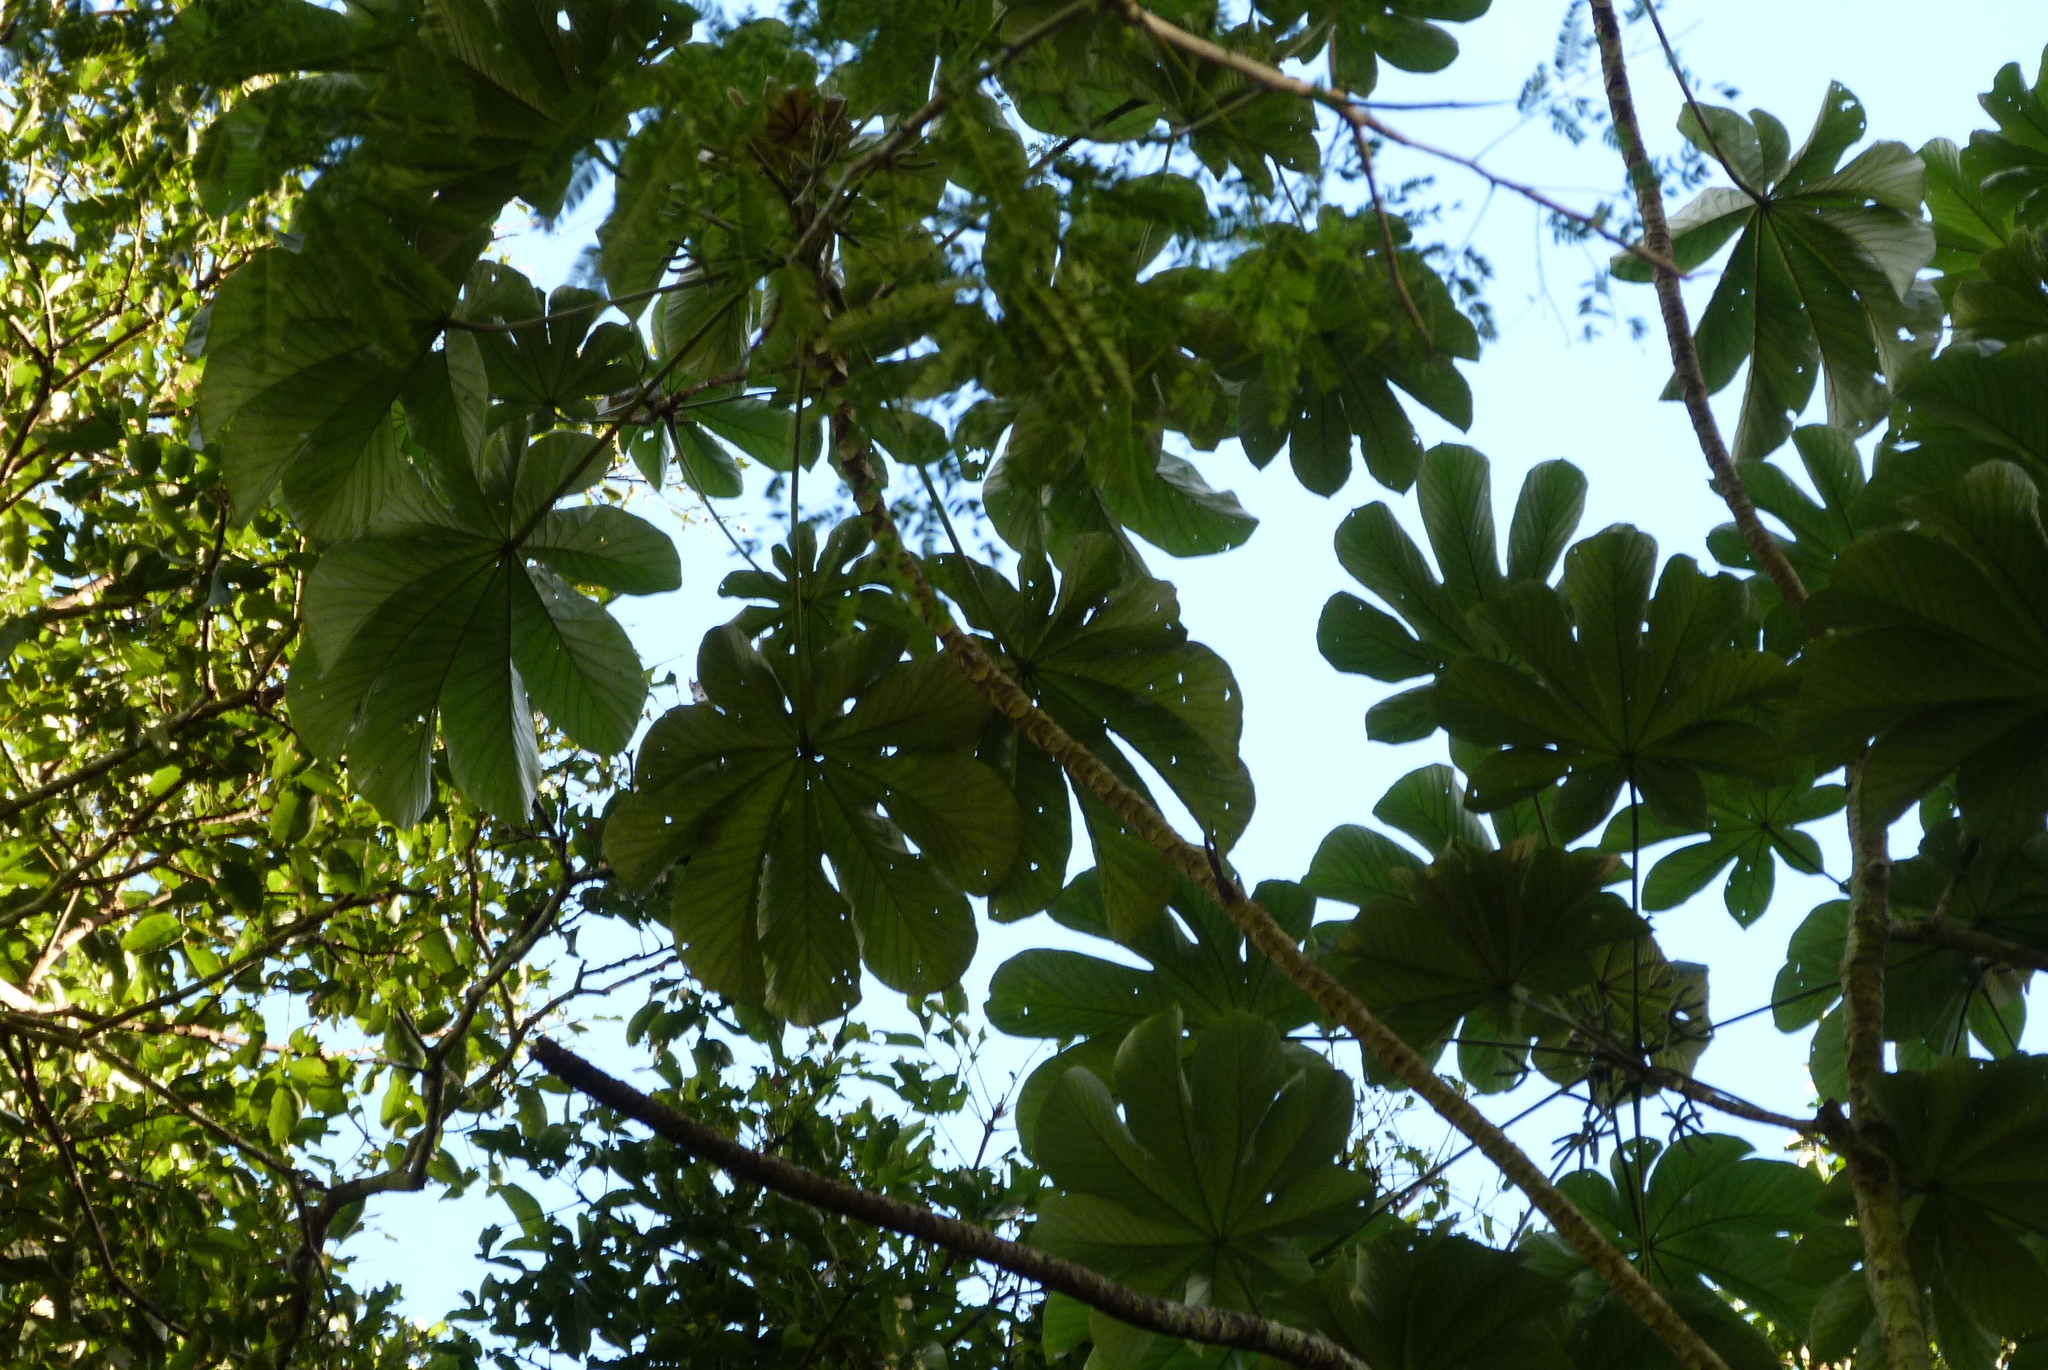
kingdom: Plantae
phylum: Tracheophyta
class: Magnoliopsida
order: Rosales
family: Urticaceae
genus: Cecropia
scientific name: Cecropia peltata
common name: Trumpet-tree
